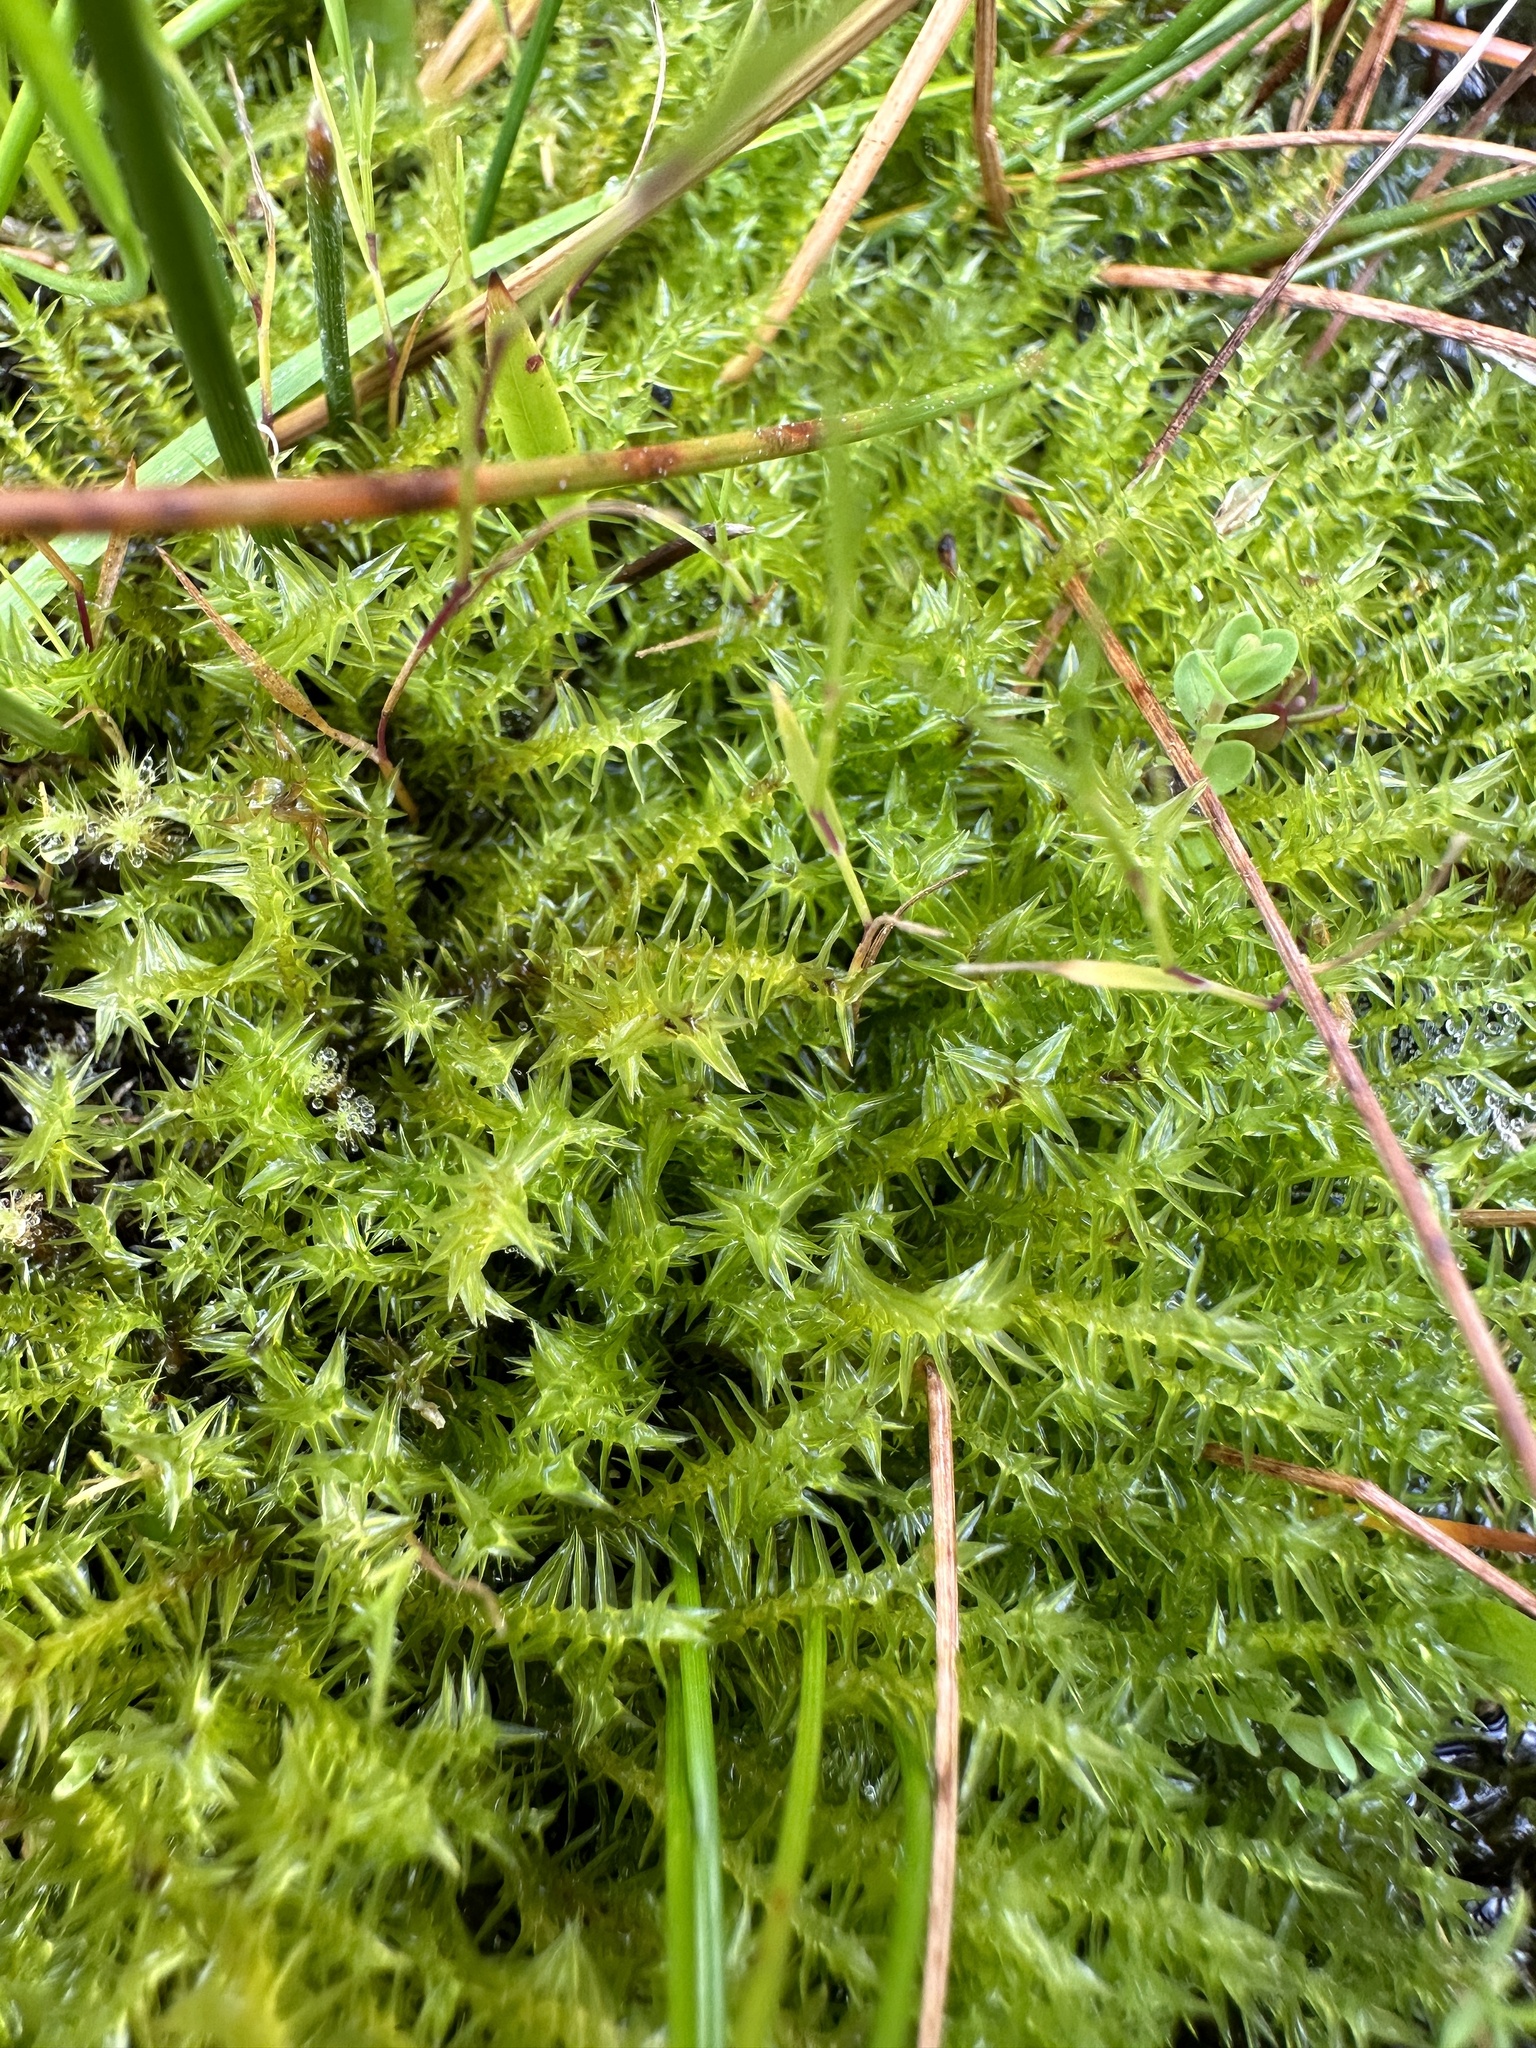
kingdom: Plantae
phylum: Bryophyta
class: Bryopsida
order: Splachnales
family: Meesiaceae
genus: Meesia
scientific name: Meesia triquetra
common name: Three-angled thread moss
